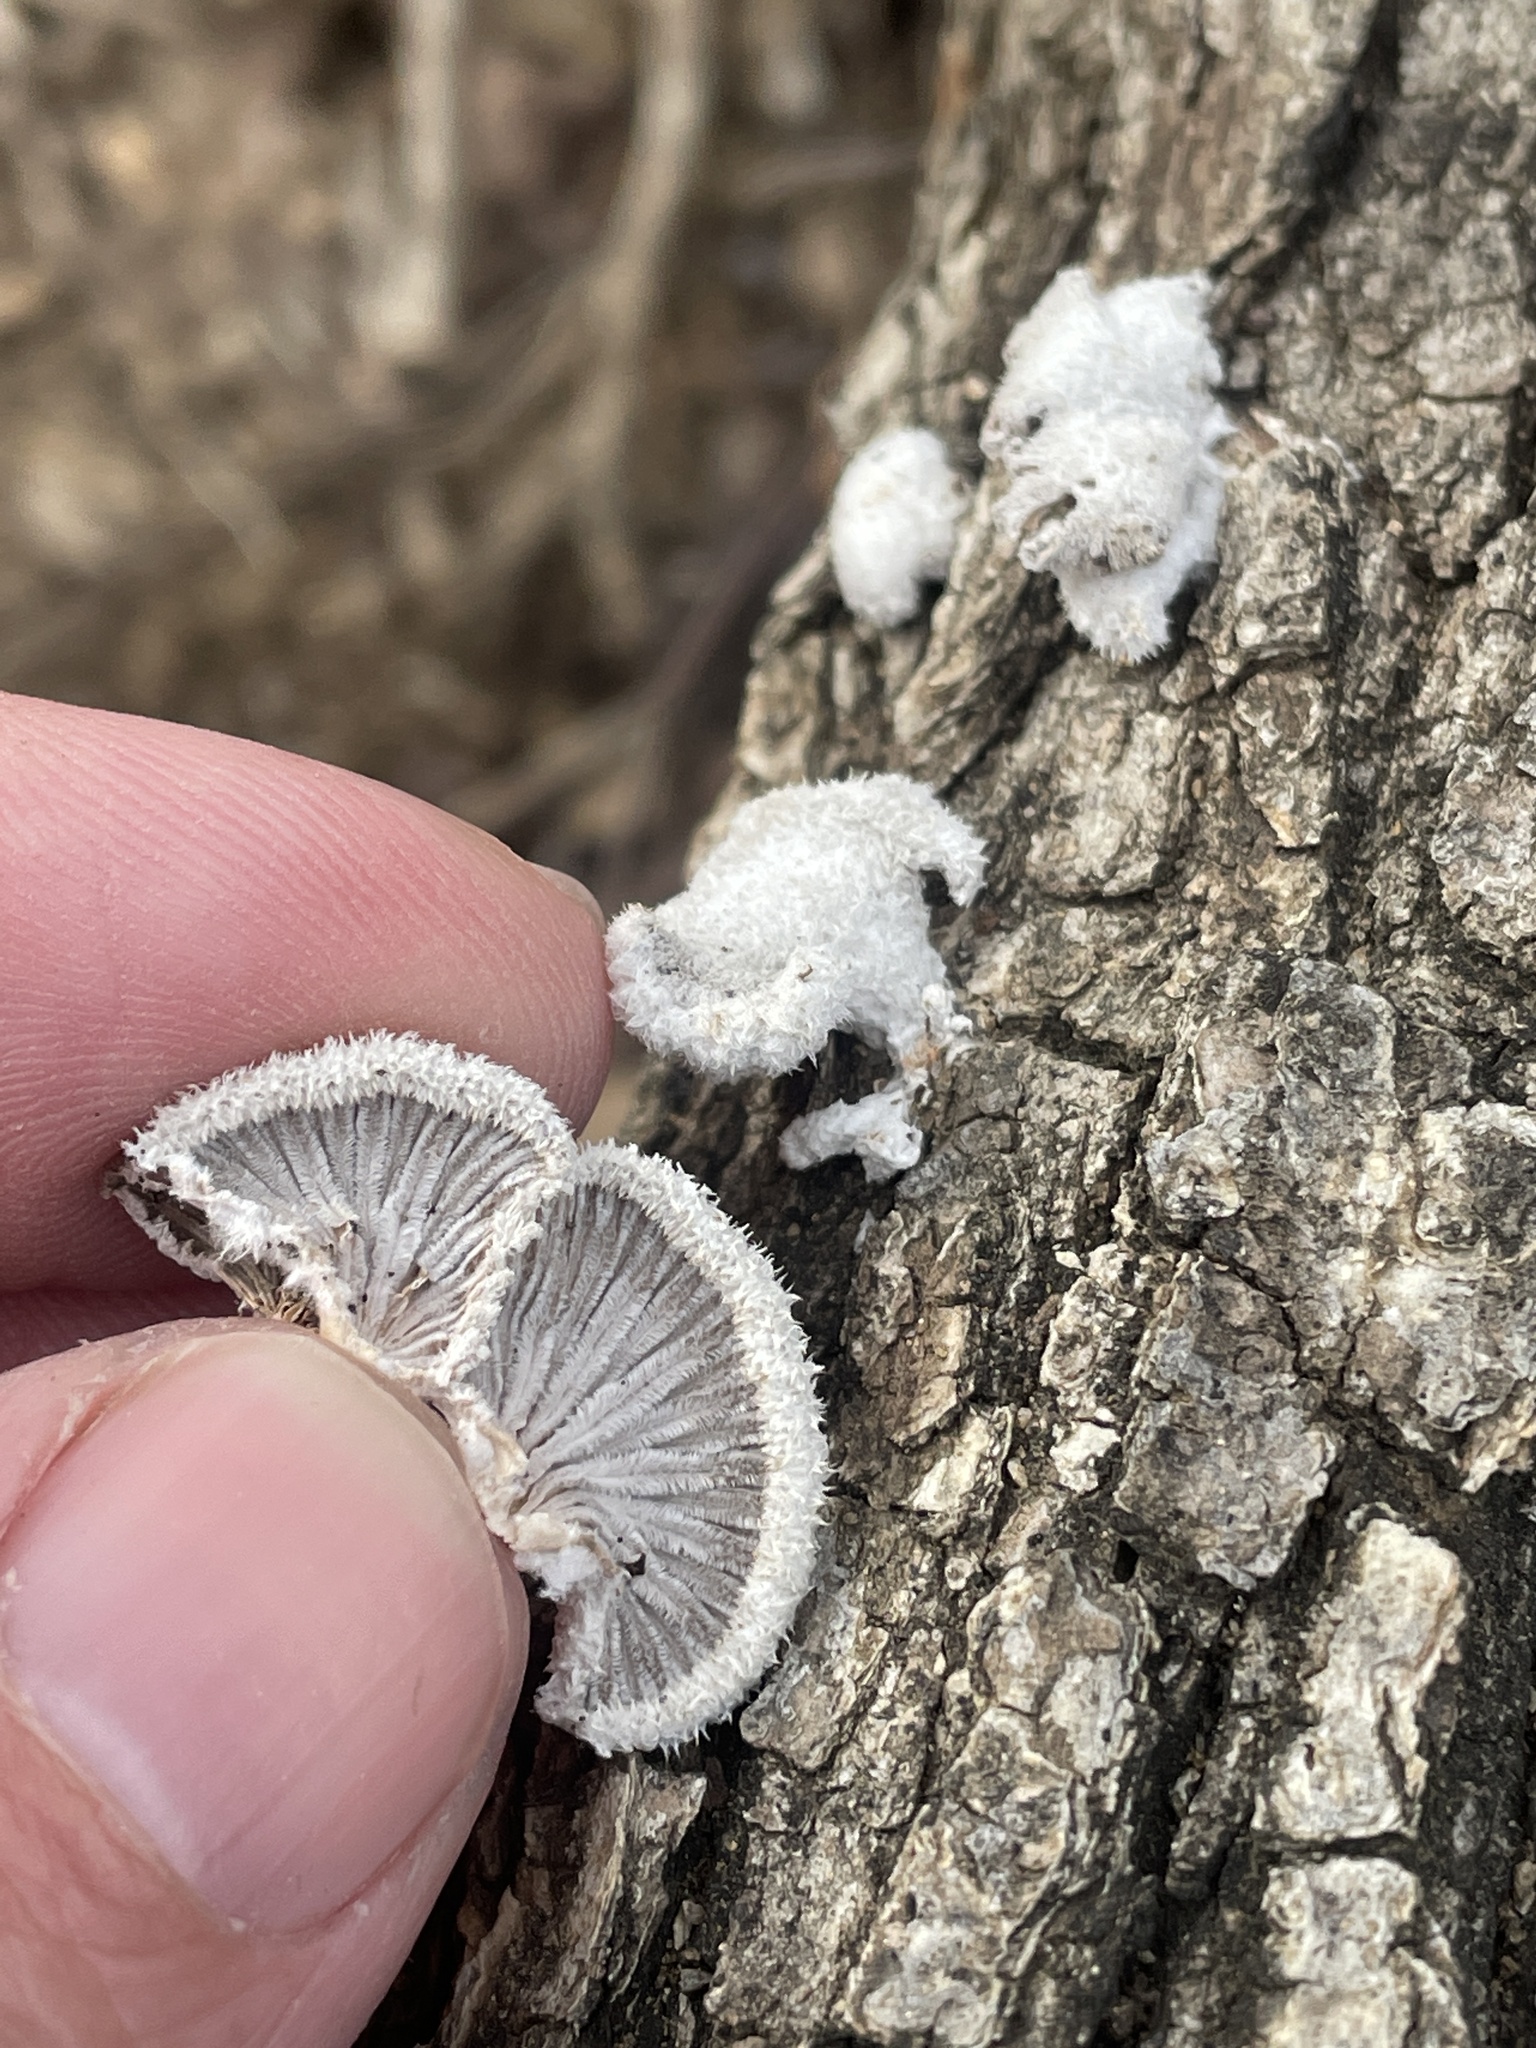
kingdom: Fungi
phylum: Basidiomycota
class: Agaricomycetes
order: Agaricales
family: Schizophyllaceae
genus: Schizophyllum
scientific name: Schizophyllum commune
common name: Common porecrust
